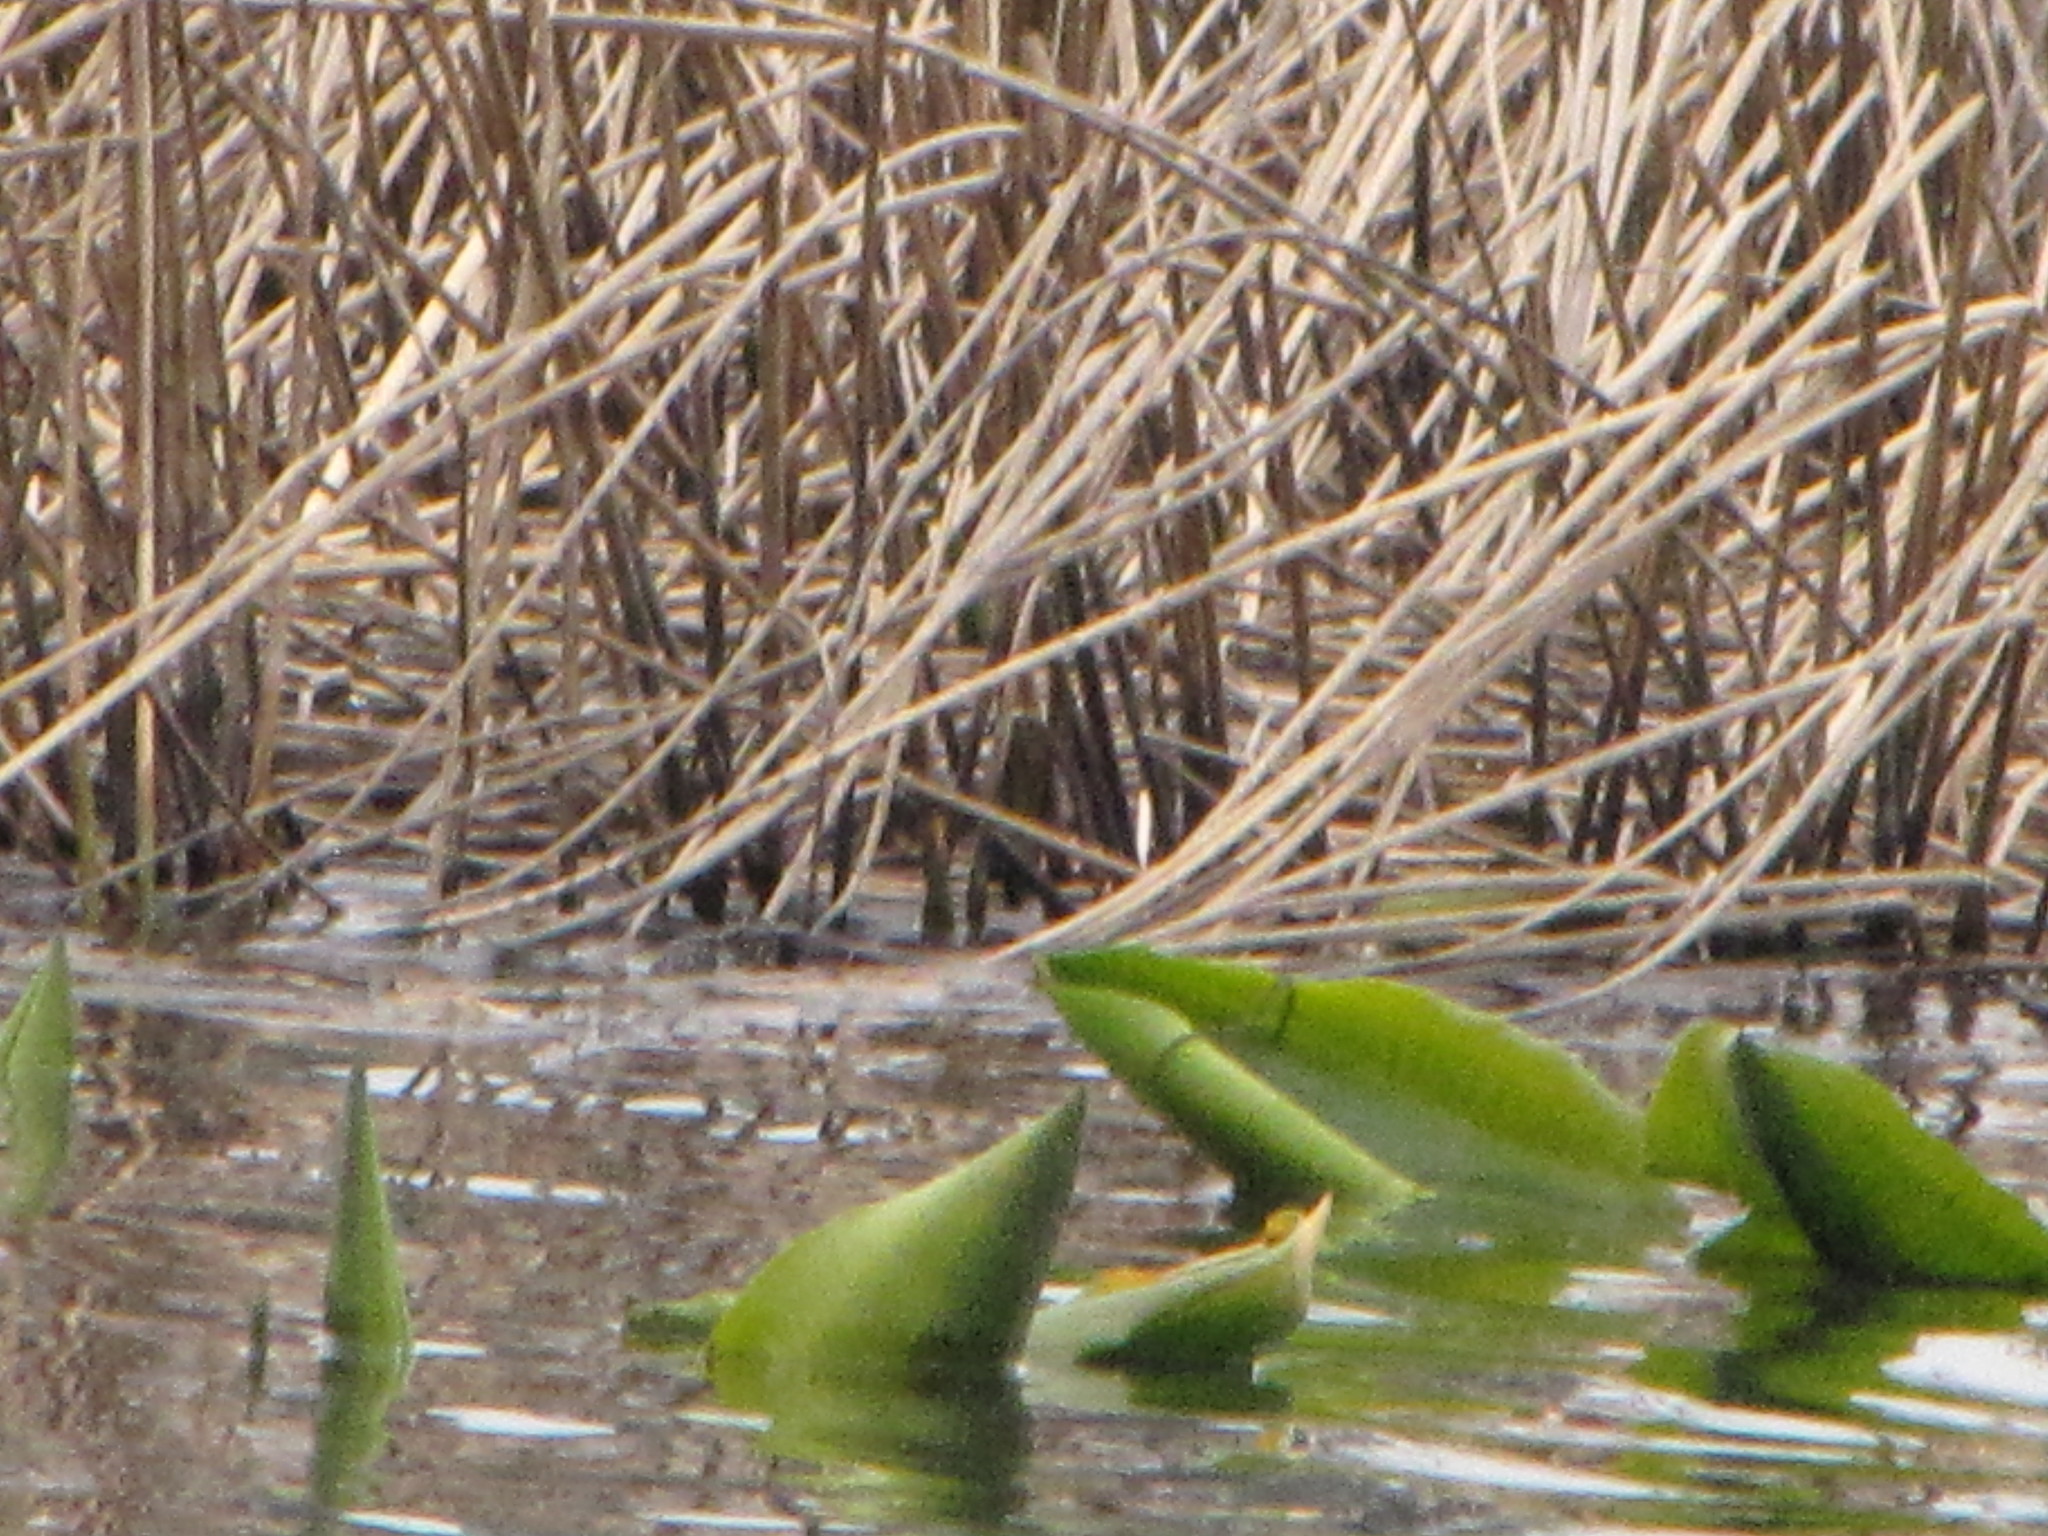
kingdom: Plantae
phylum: Tracheophyta
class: Magnoliopsida
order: Nymphaeales
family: Nymphaeaceae
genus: Nuphar
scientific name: Nuphar polysepala
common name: Rocky mountain cow-lily
